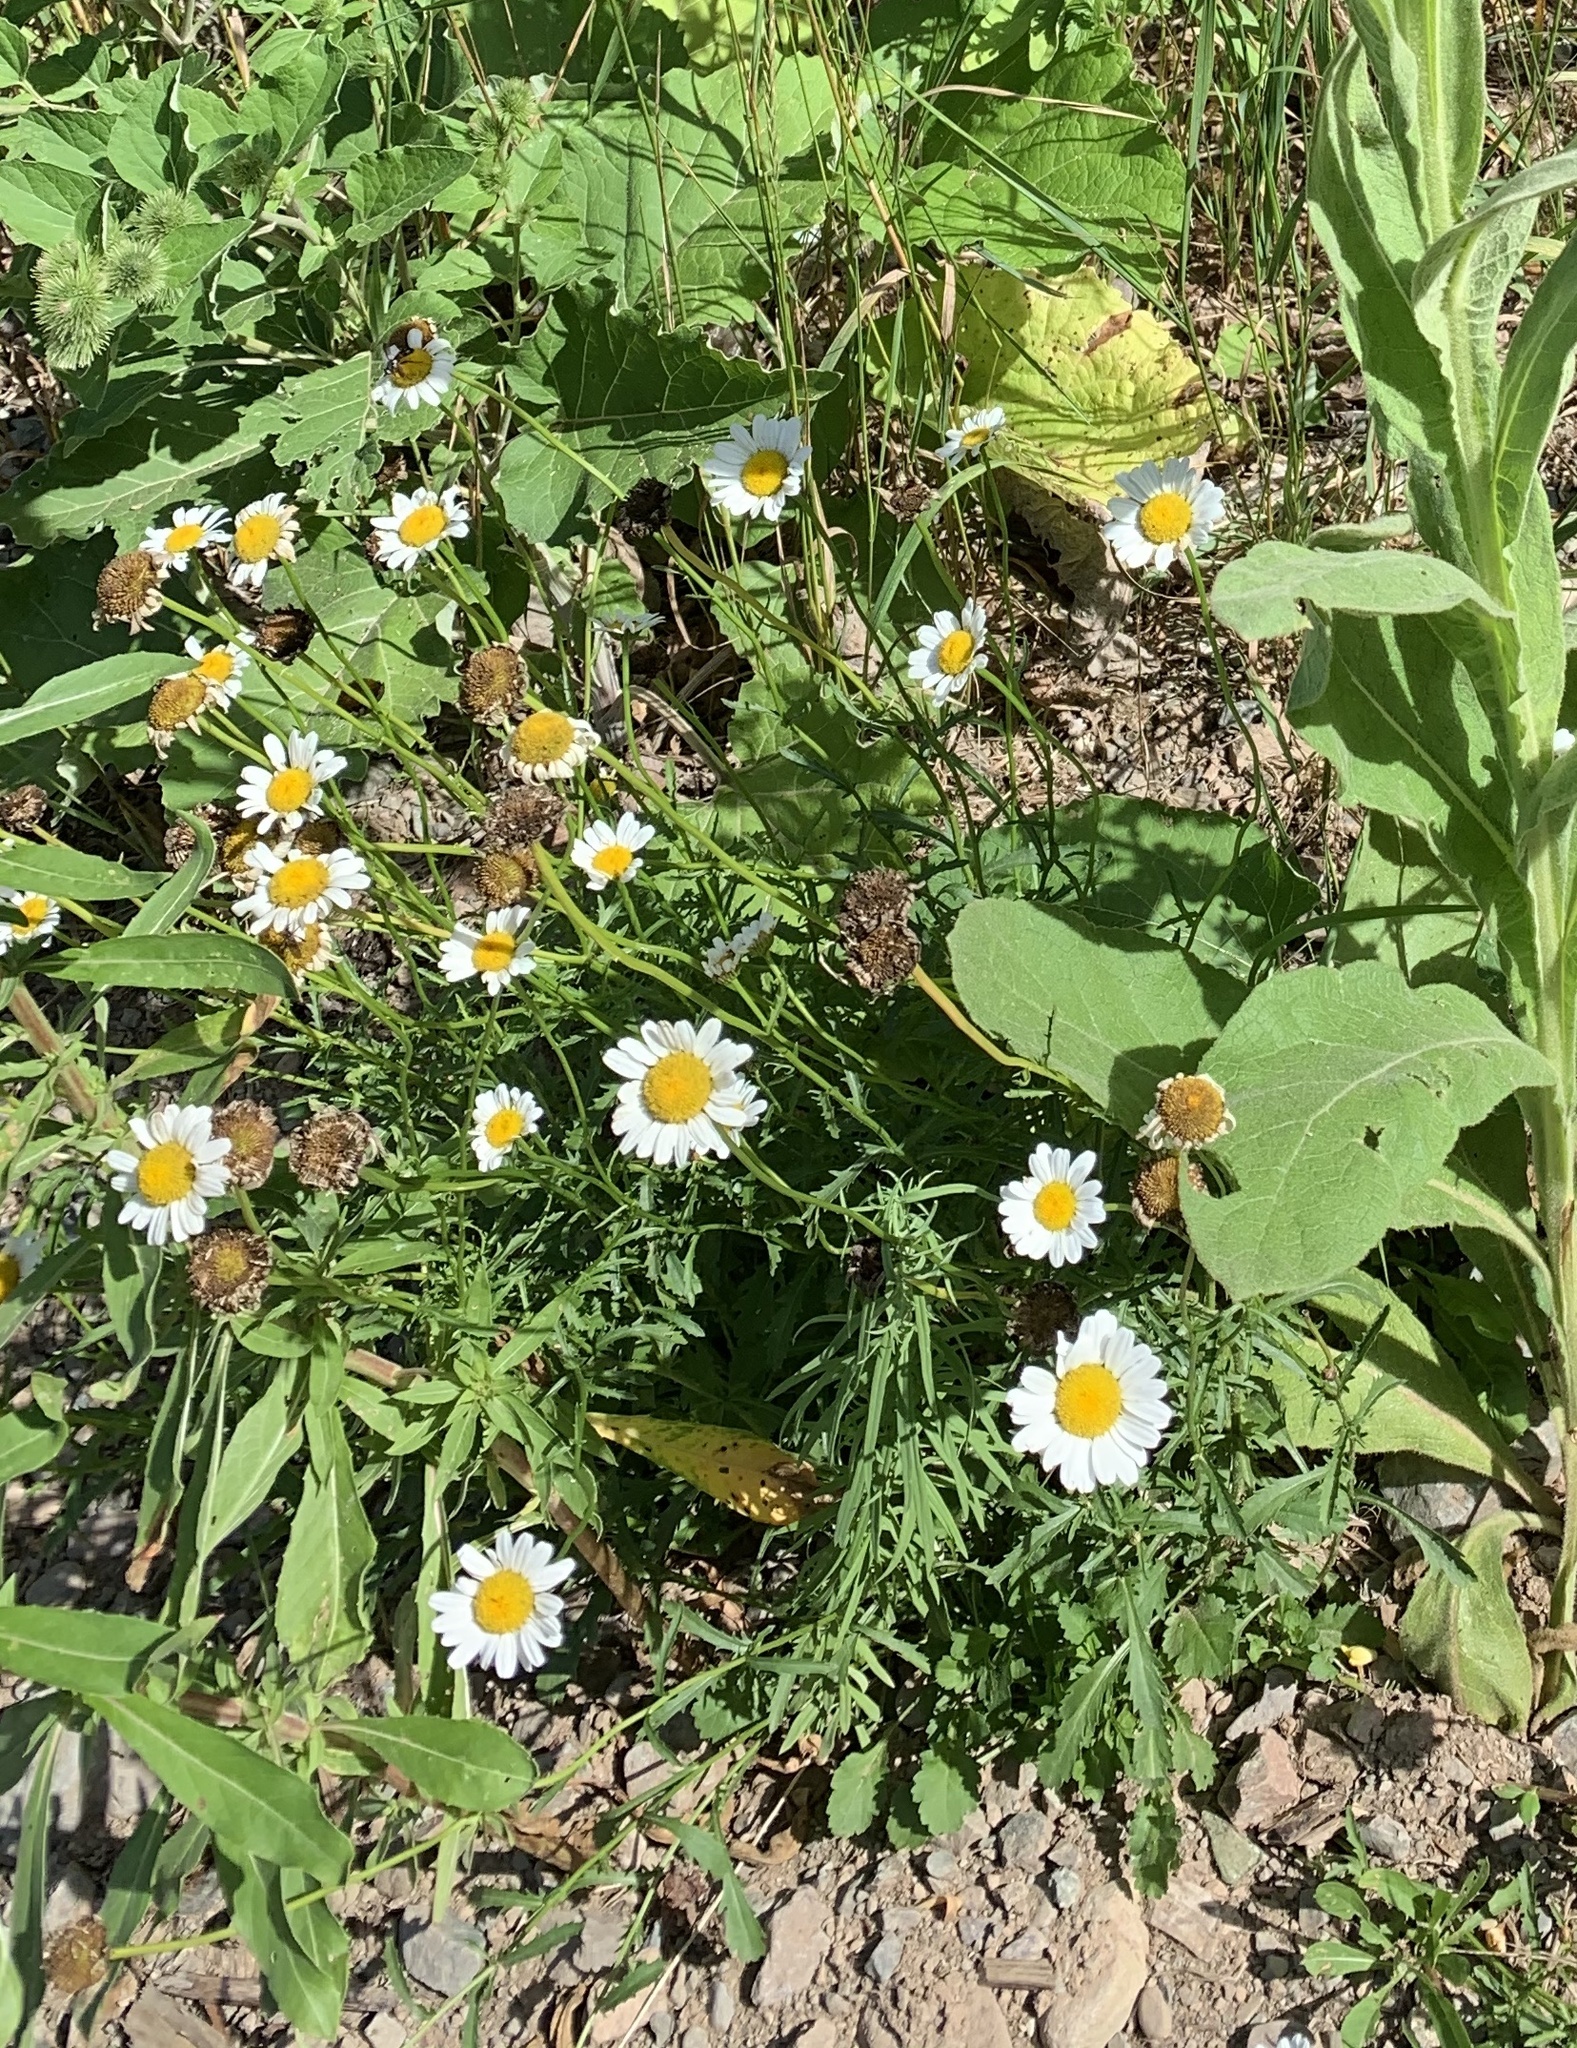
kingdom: Plantae
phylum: Tracheophyta
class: Magnoliopsida
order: Asterales
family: Asteraceae
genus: Leucanthemum
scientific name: Leucanthemum vulgare
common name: Oxeye daisy
